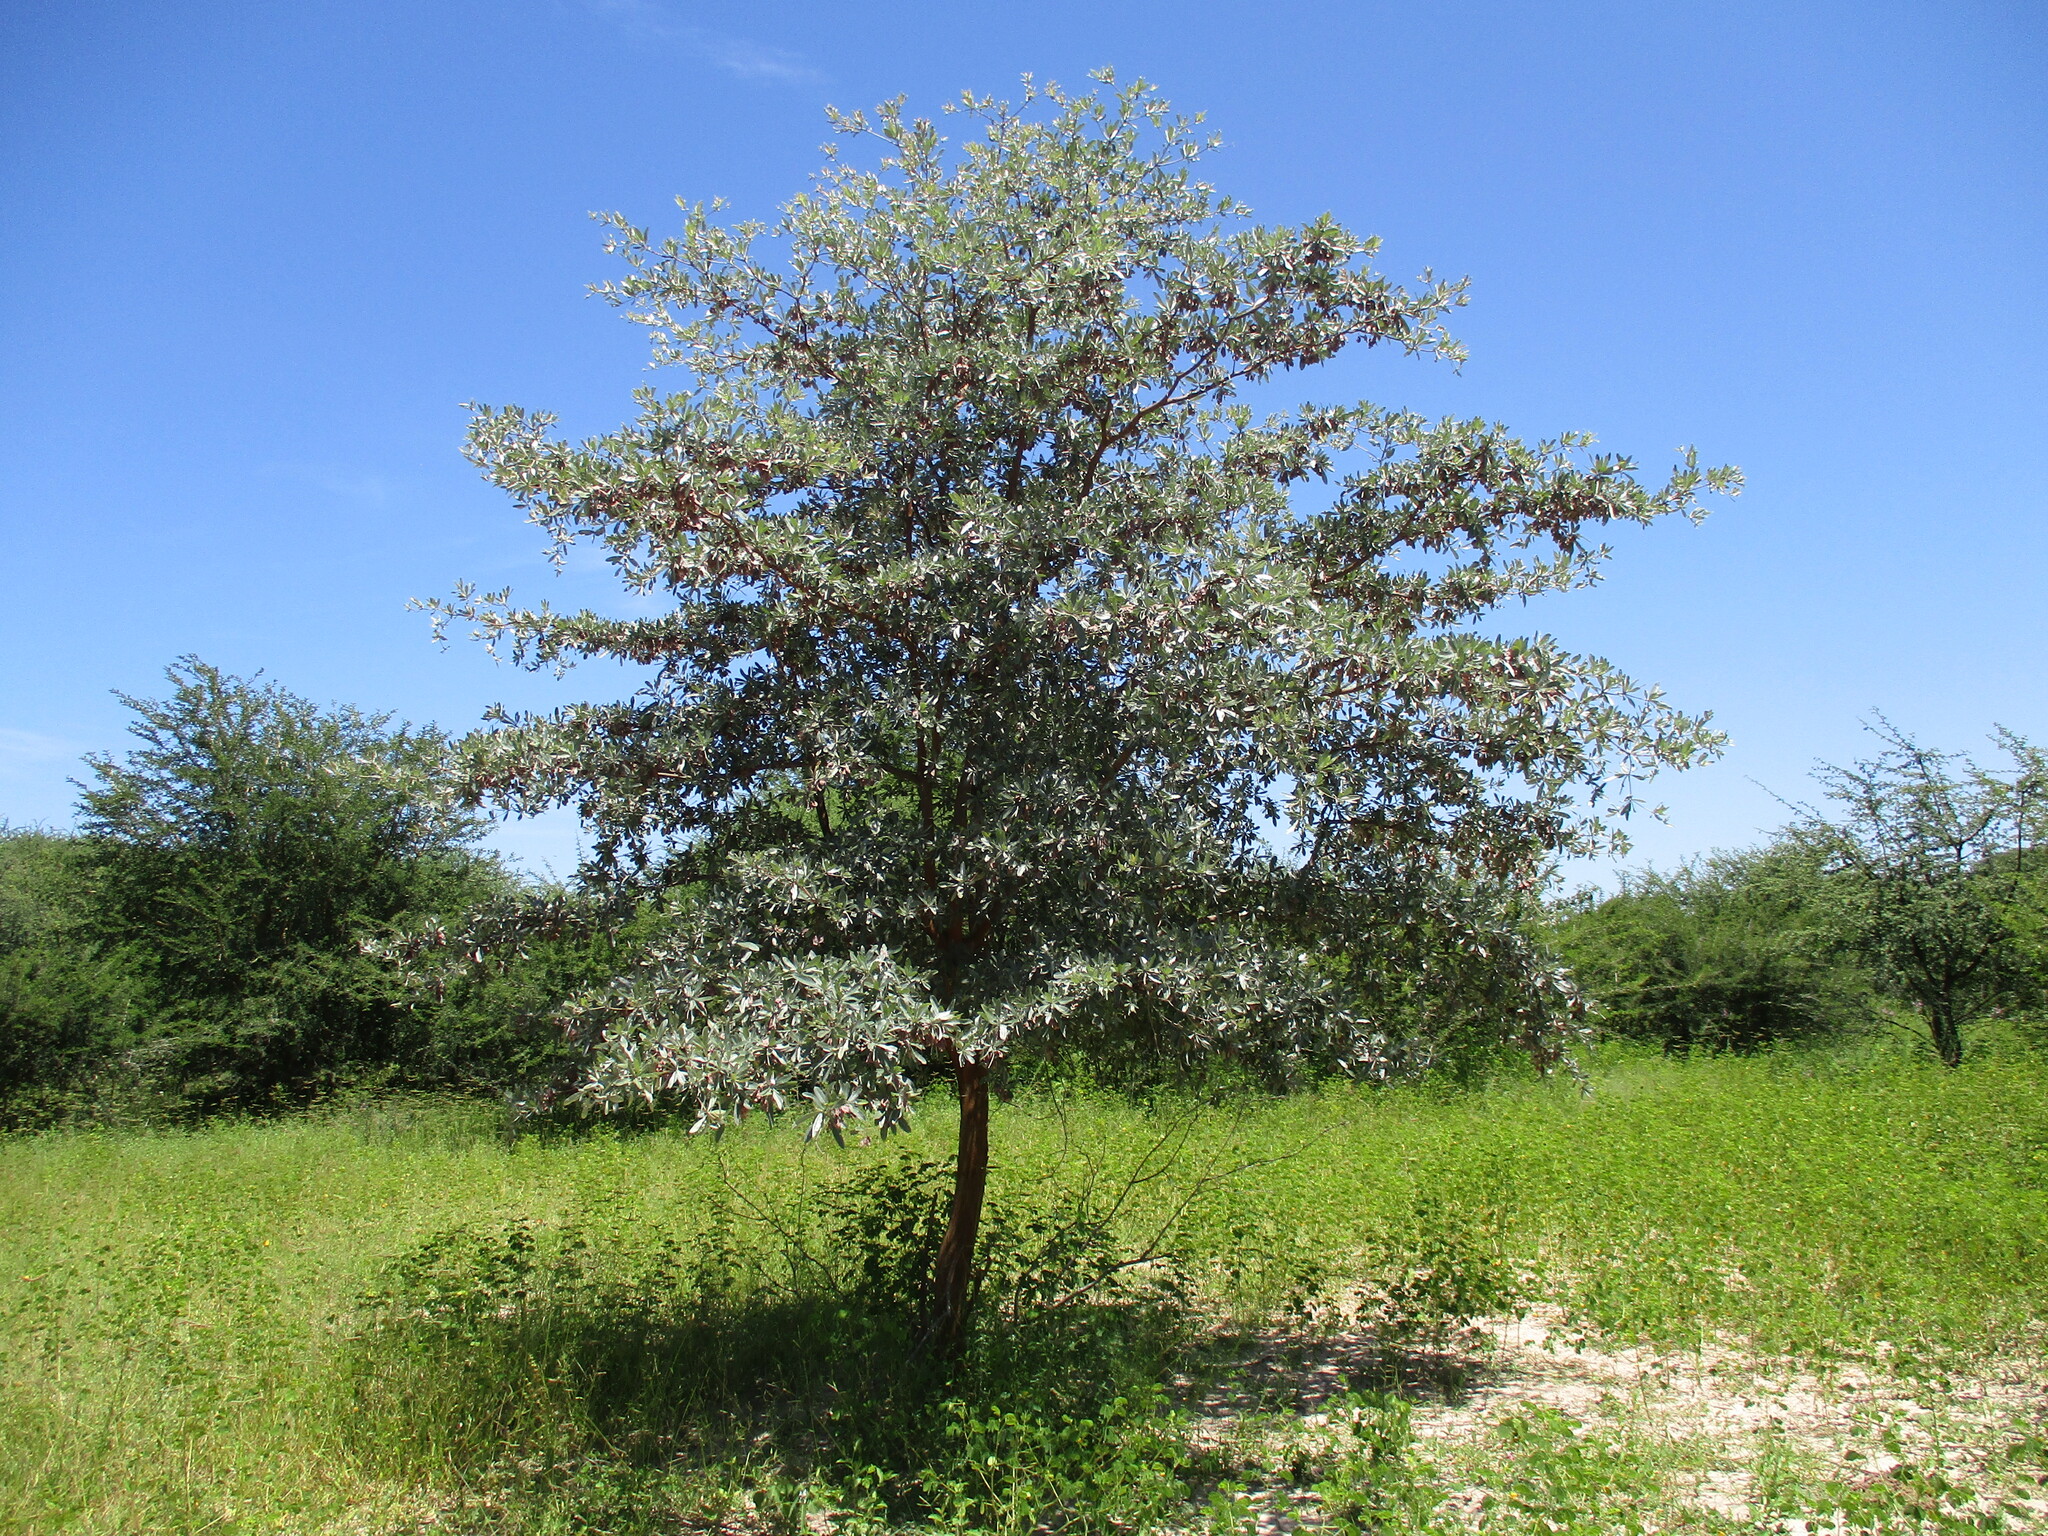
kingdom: Plantae
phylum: Tracheophyta
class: Magnoliopsida
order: Myrtales
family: Combretaceae
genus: Terminalia
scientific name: Terminalia sericea
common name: Clusterleaf
